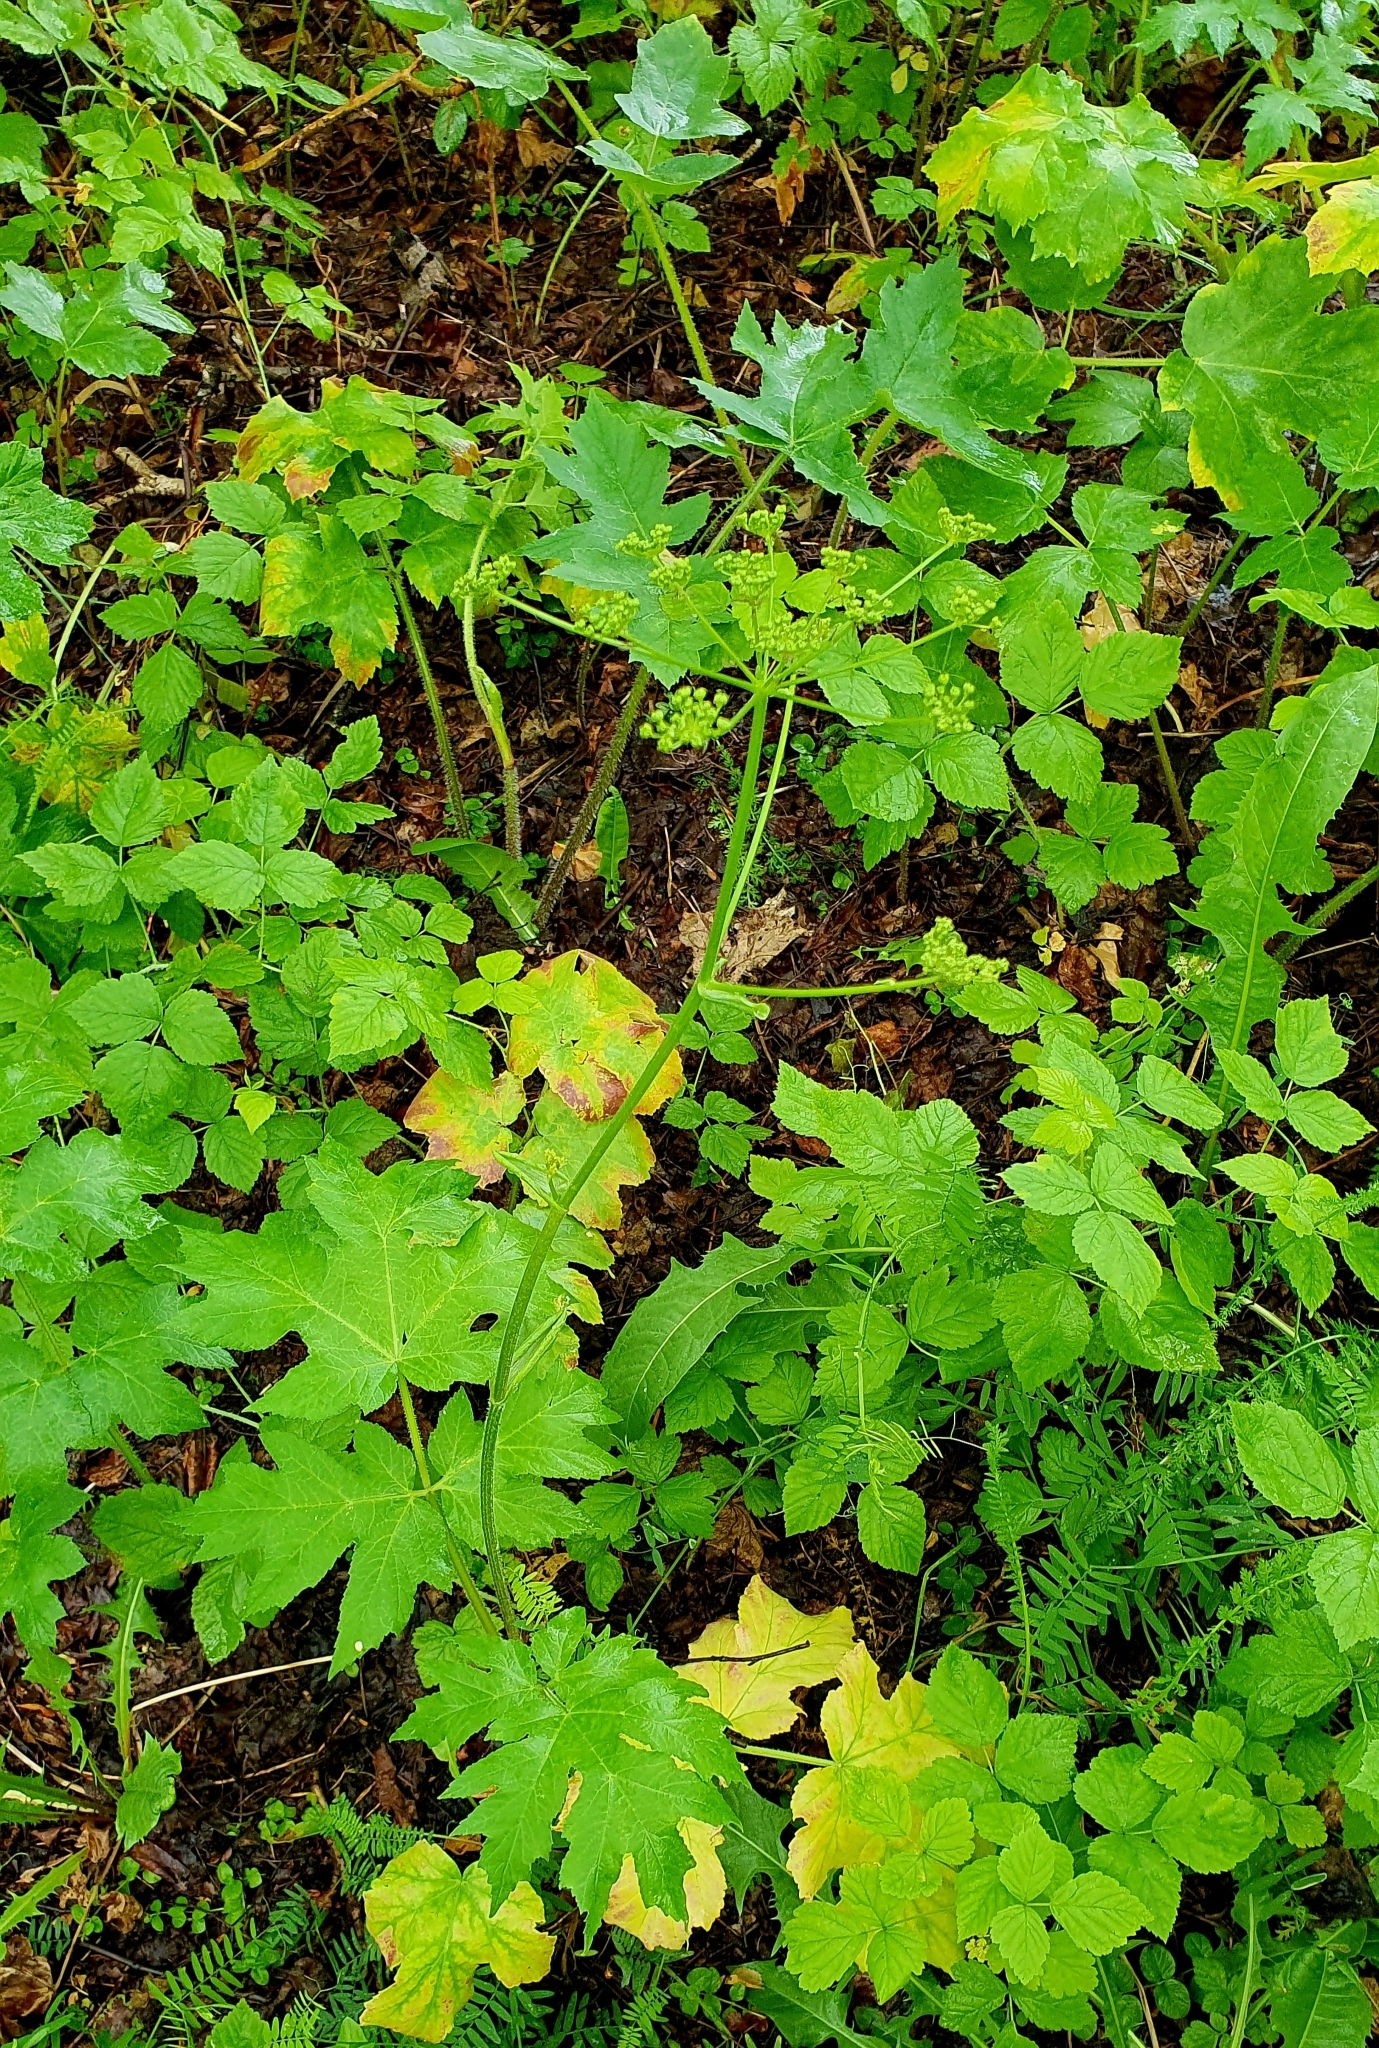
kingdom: Plantae
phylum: Tracheophyta
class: Magnoliopsida
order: Apiales
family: Apiaceae
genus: Heracleum
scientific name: Heracleum sphondylium
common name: Hogweed
